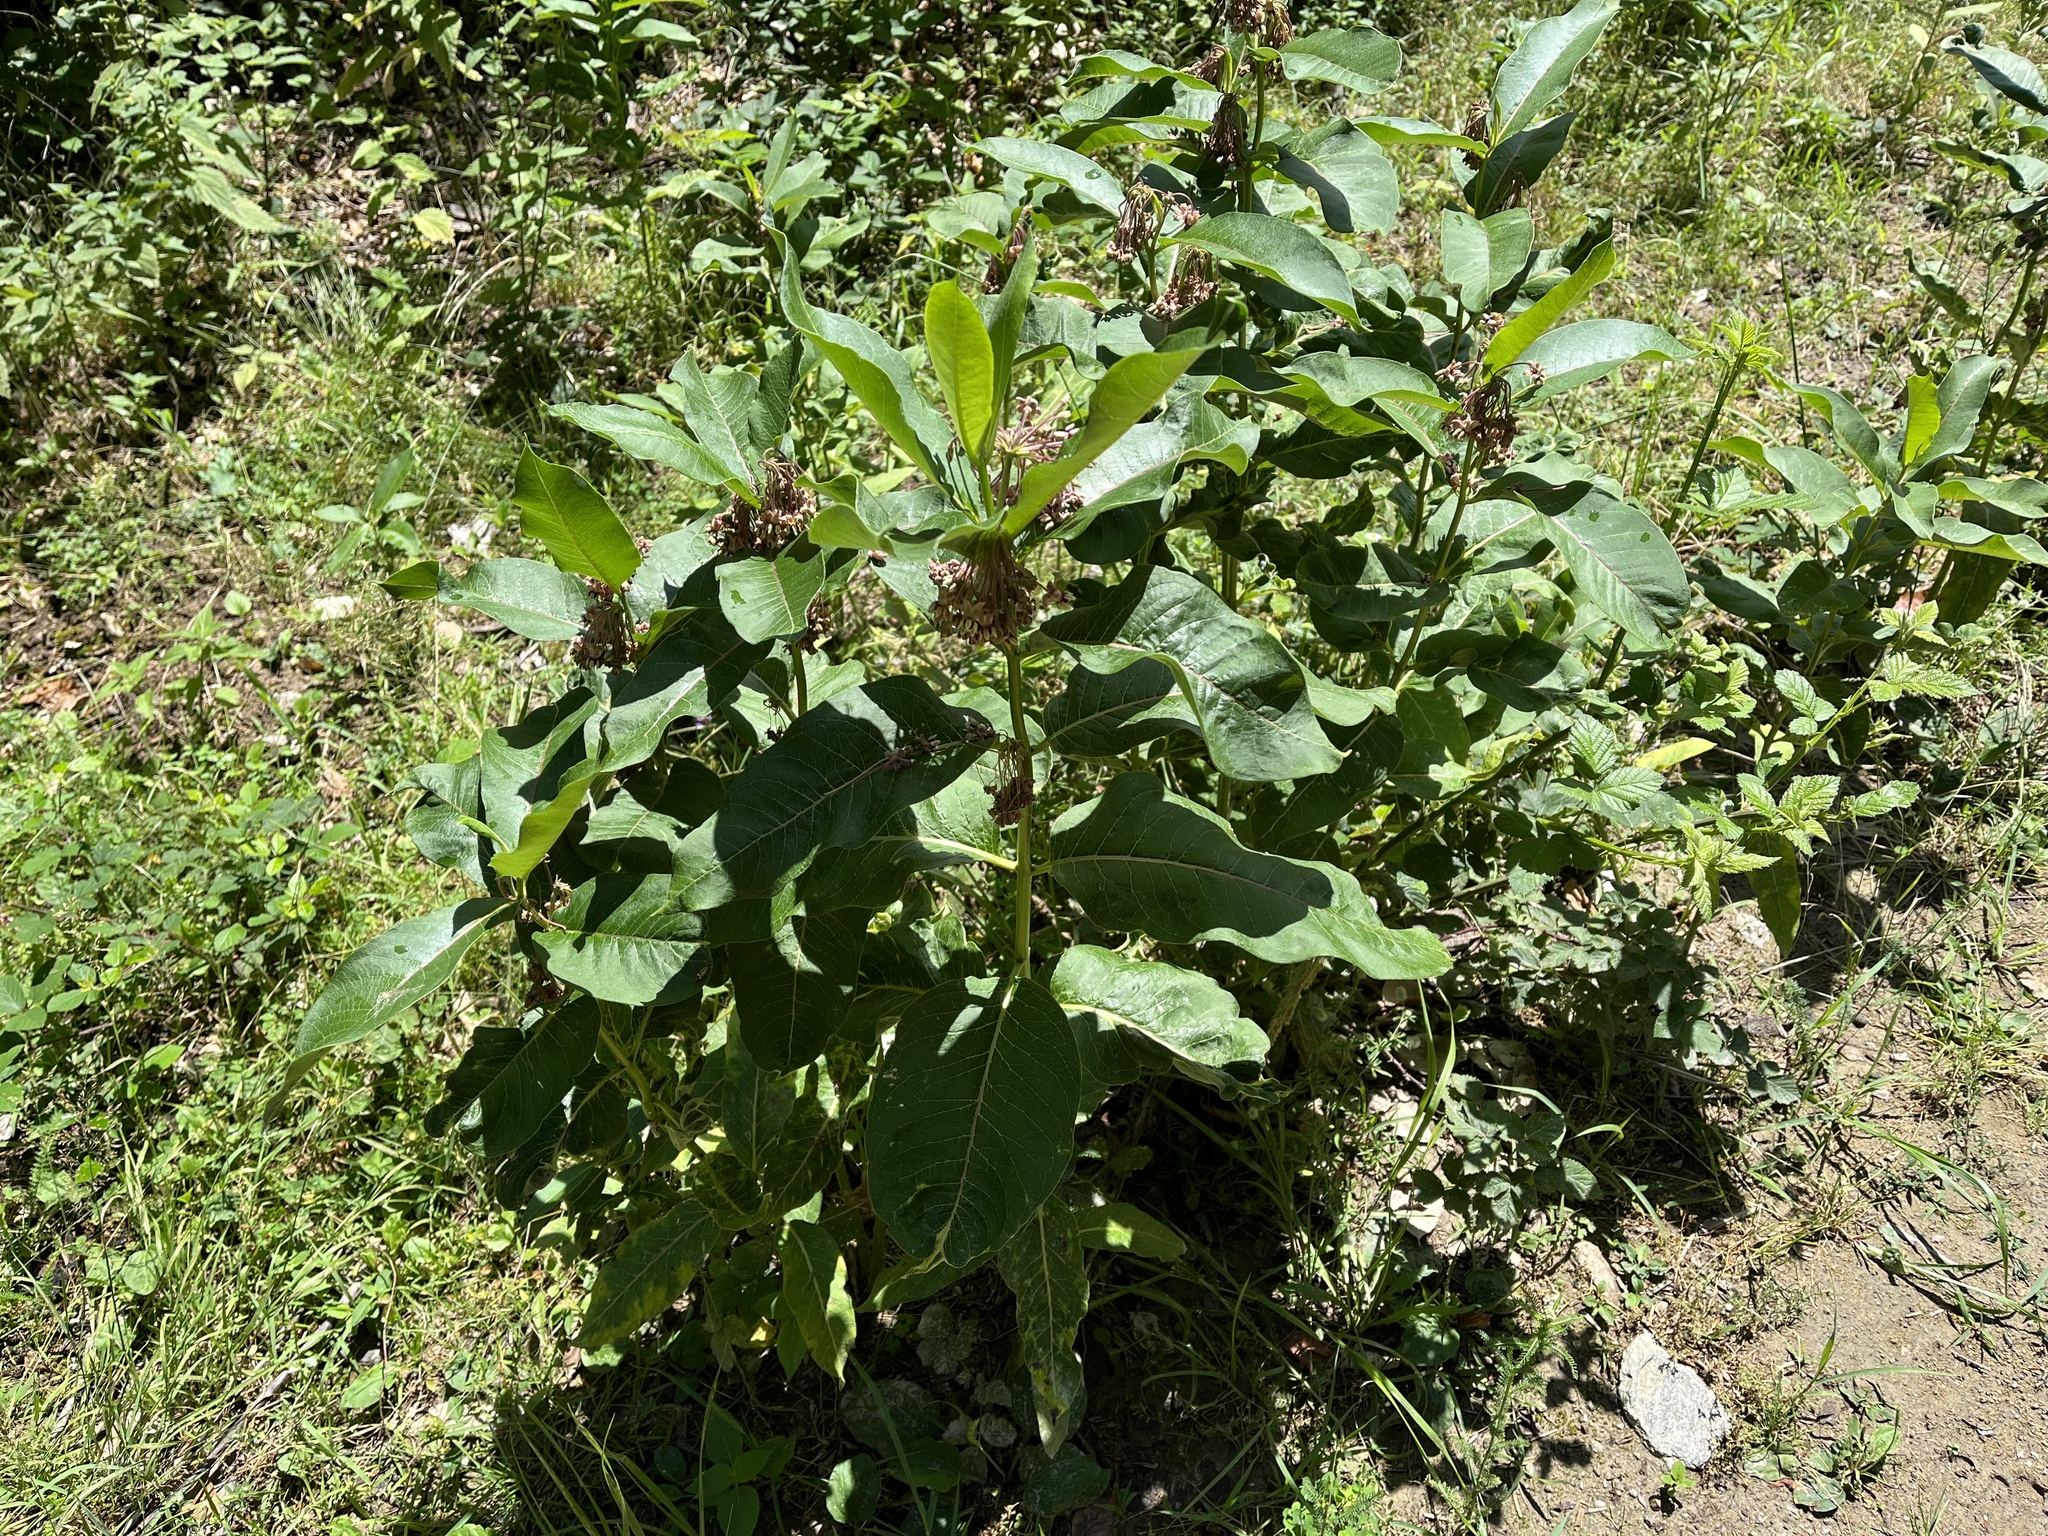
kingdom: Plantae
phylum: Tracheophyta
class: Magnoliopsida
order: Gentianales
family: Apocynaceae
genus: Asclepias
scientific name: Asclepias syriaca
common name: Common milkweed
